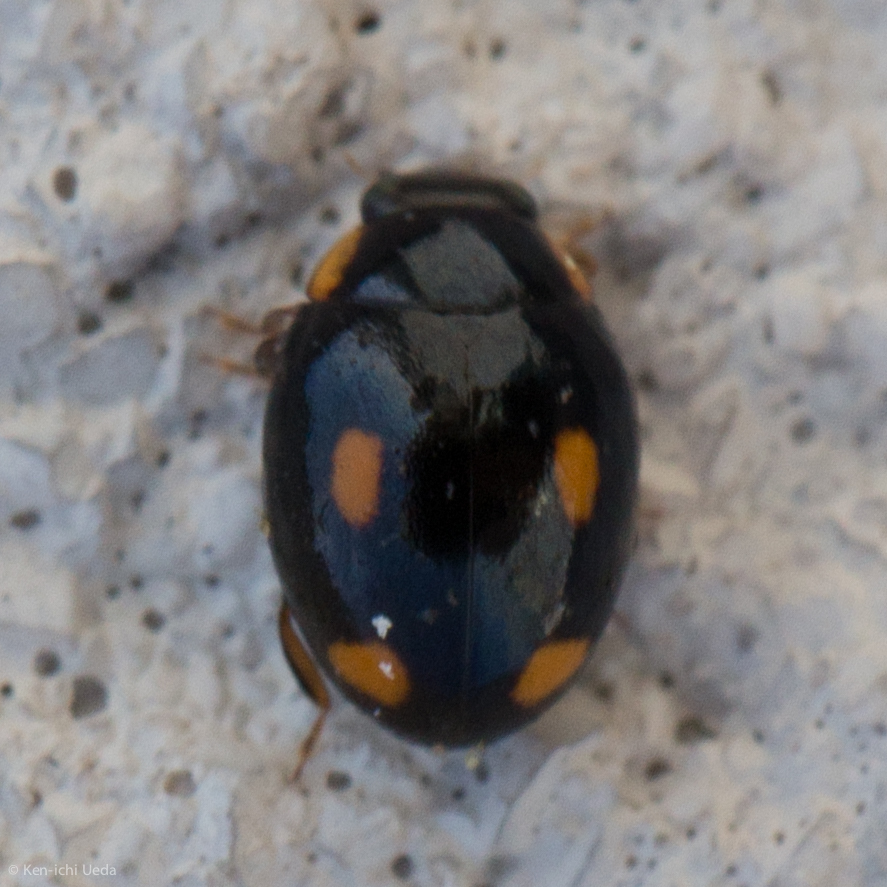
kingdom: Animalia
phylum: Arthropoda
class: Insecta
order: Coleoptera
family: Coccinellidae
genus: Hyperaspis
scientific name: Hyperaspis quadrioculata
